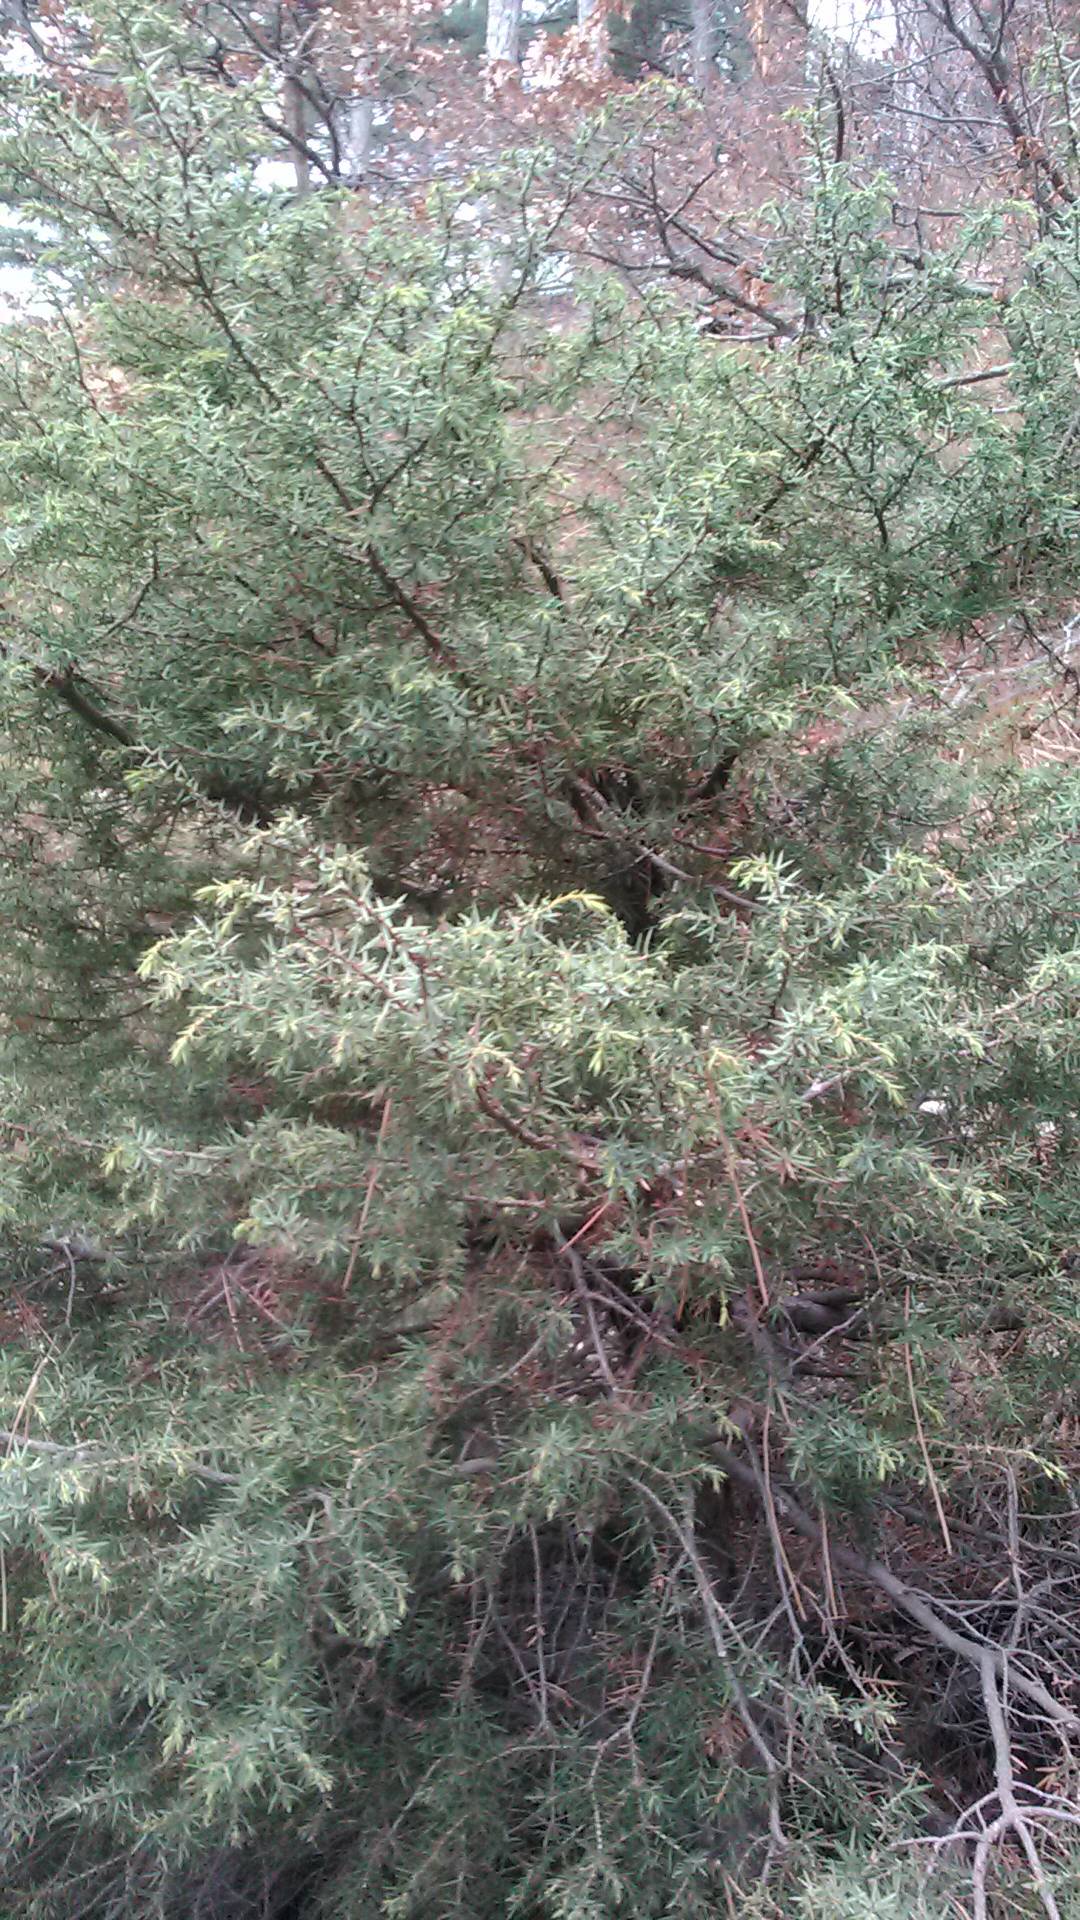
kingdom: Plantae
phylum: Tracheophyta
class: Pinopsida
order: Pinales
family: Cupressaceae
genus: Juniperus
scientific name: Juniperus oxycedrus
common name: Prickly juniper
